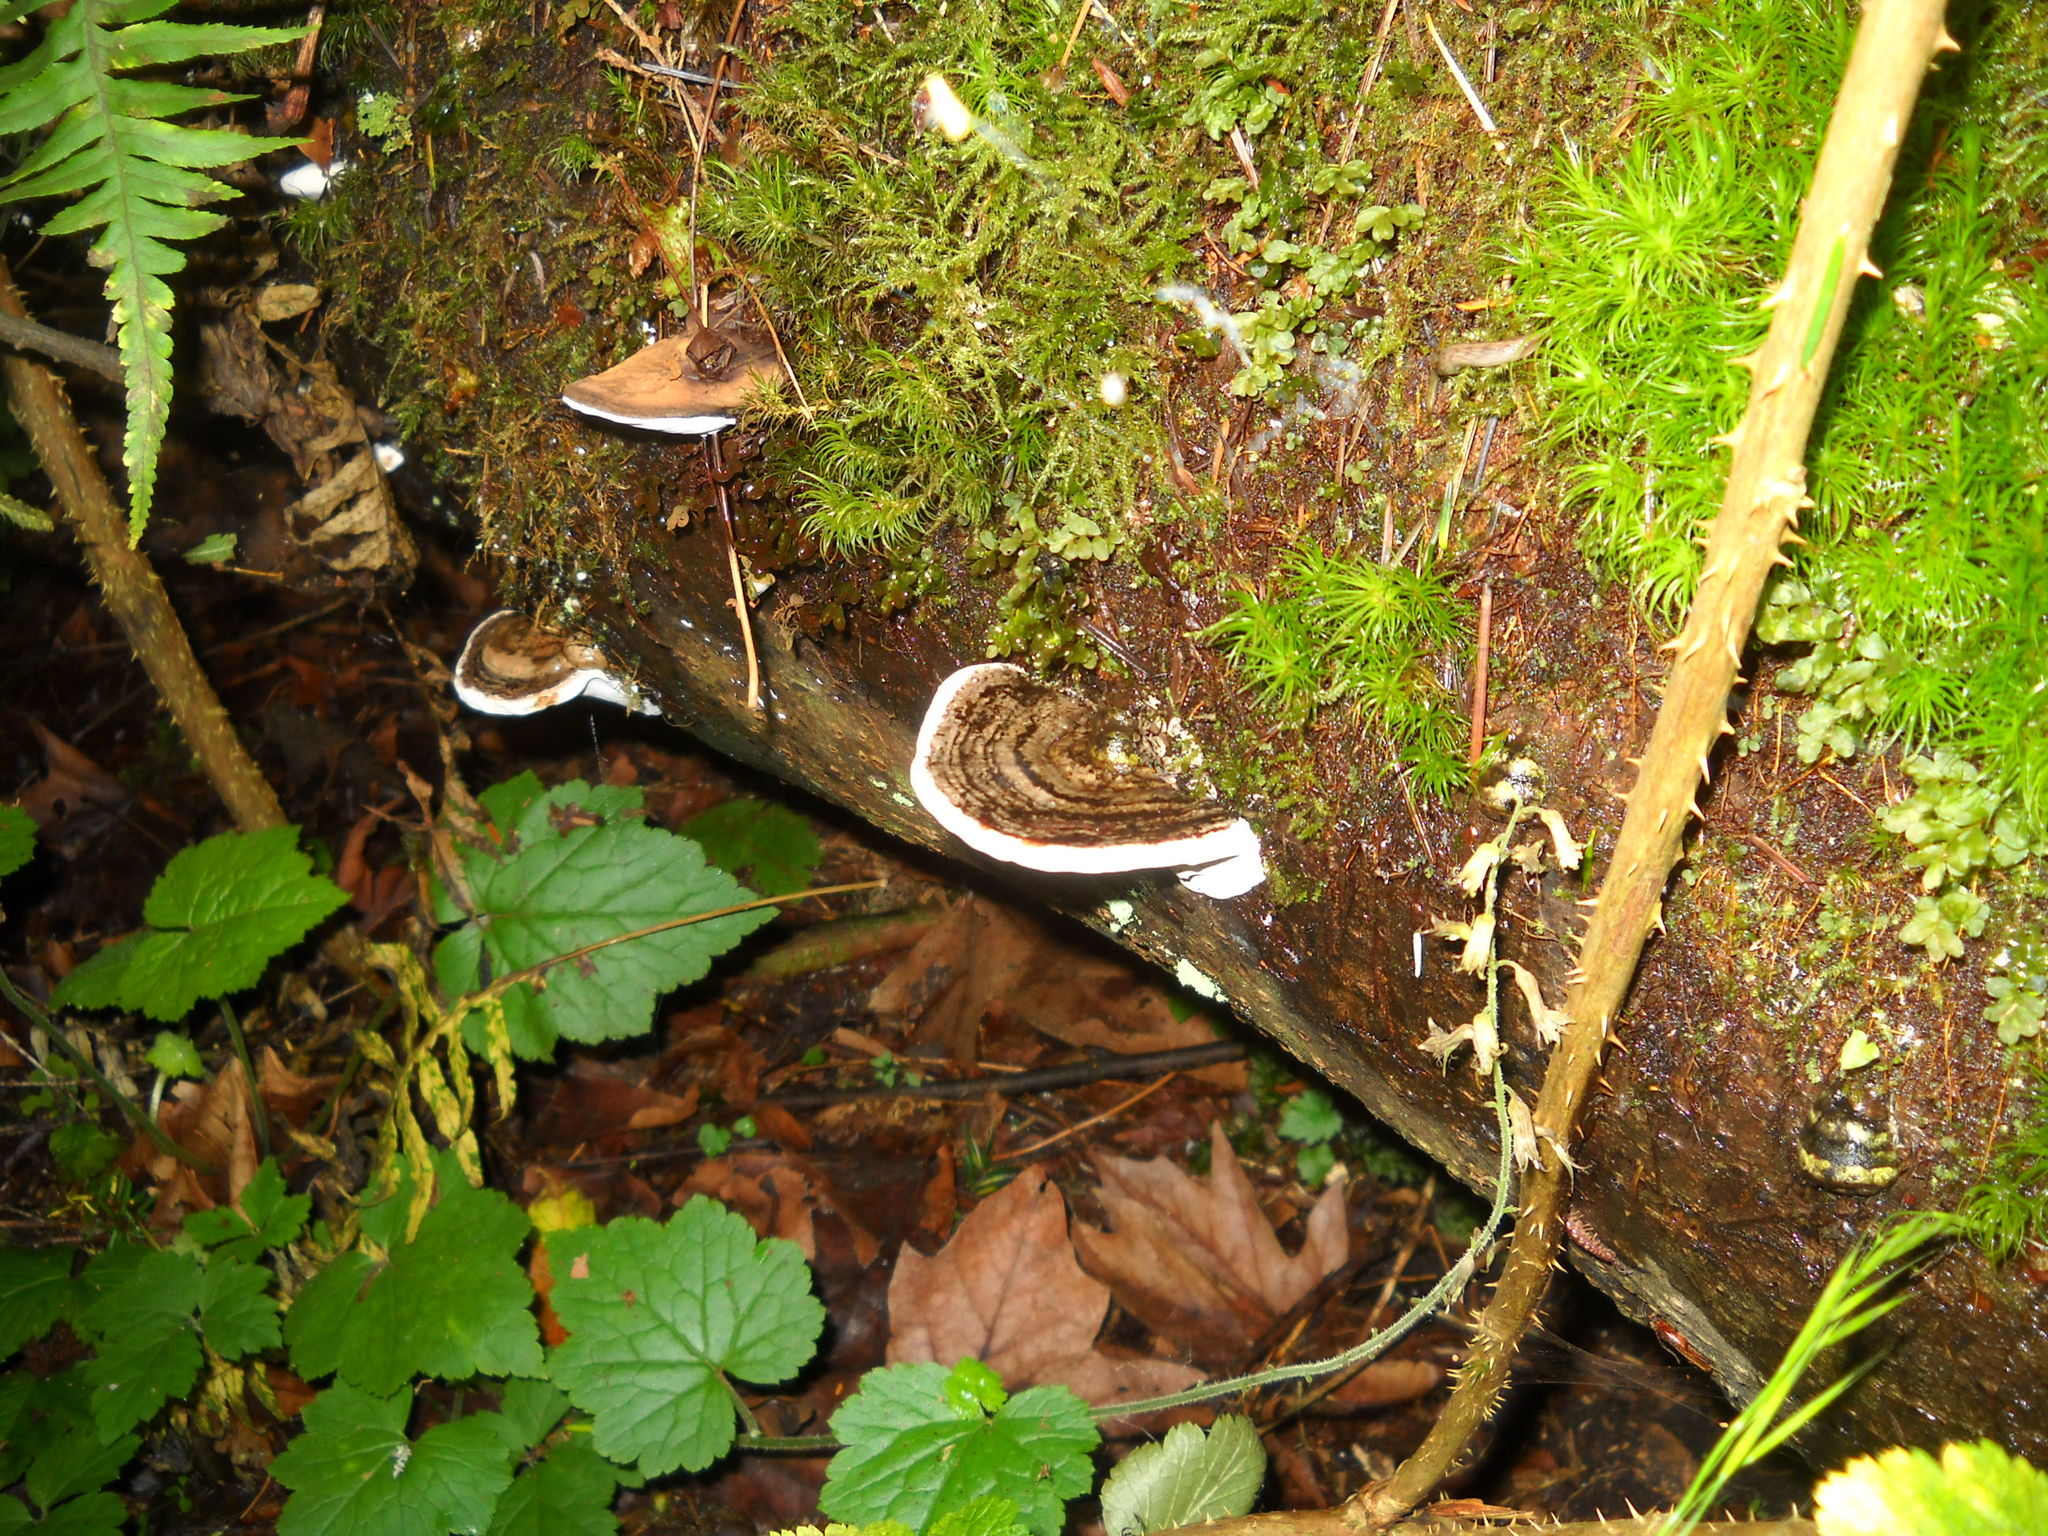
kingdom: Fungi
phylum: Basidiomycota
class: Agaricomycetes
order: Polyporales
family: Polyporaceae
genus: Ganoderma
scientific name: Ganoderma applanatum
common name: Artist's bracket
